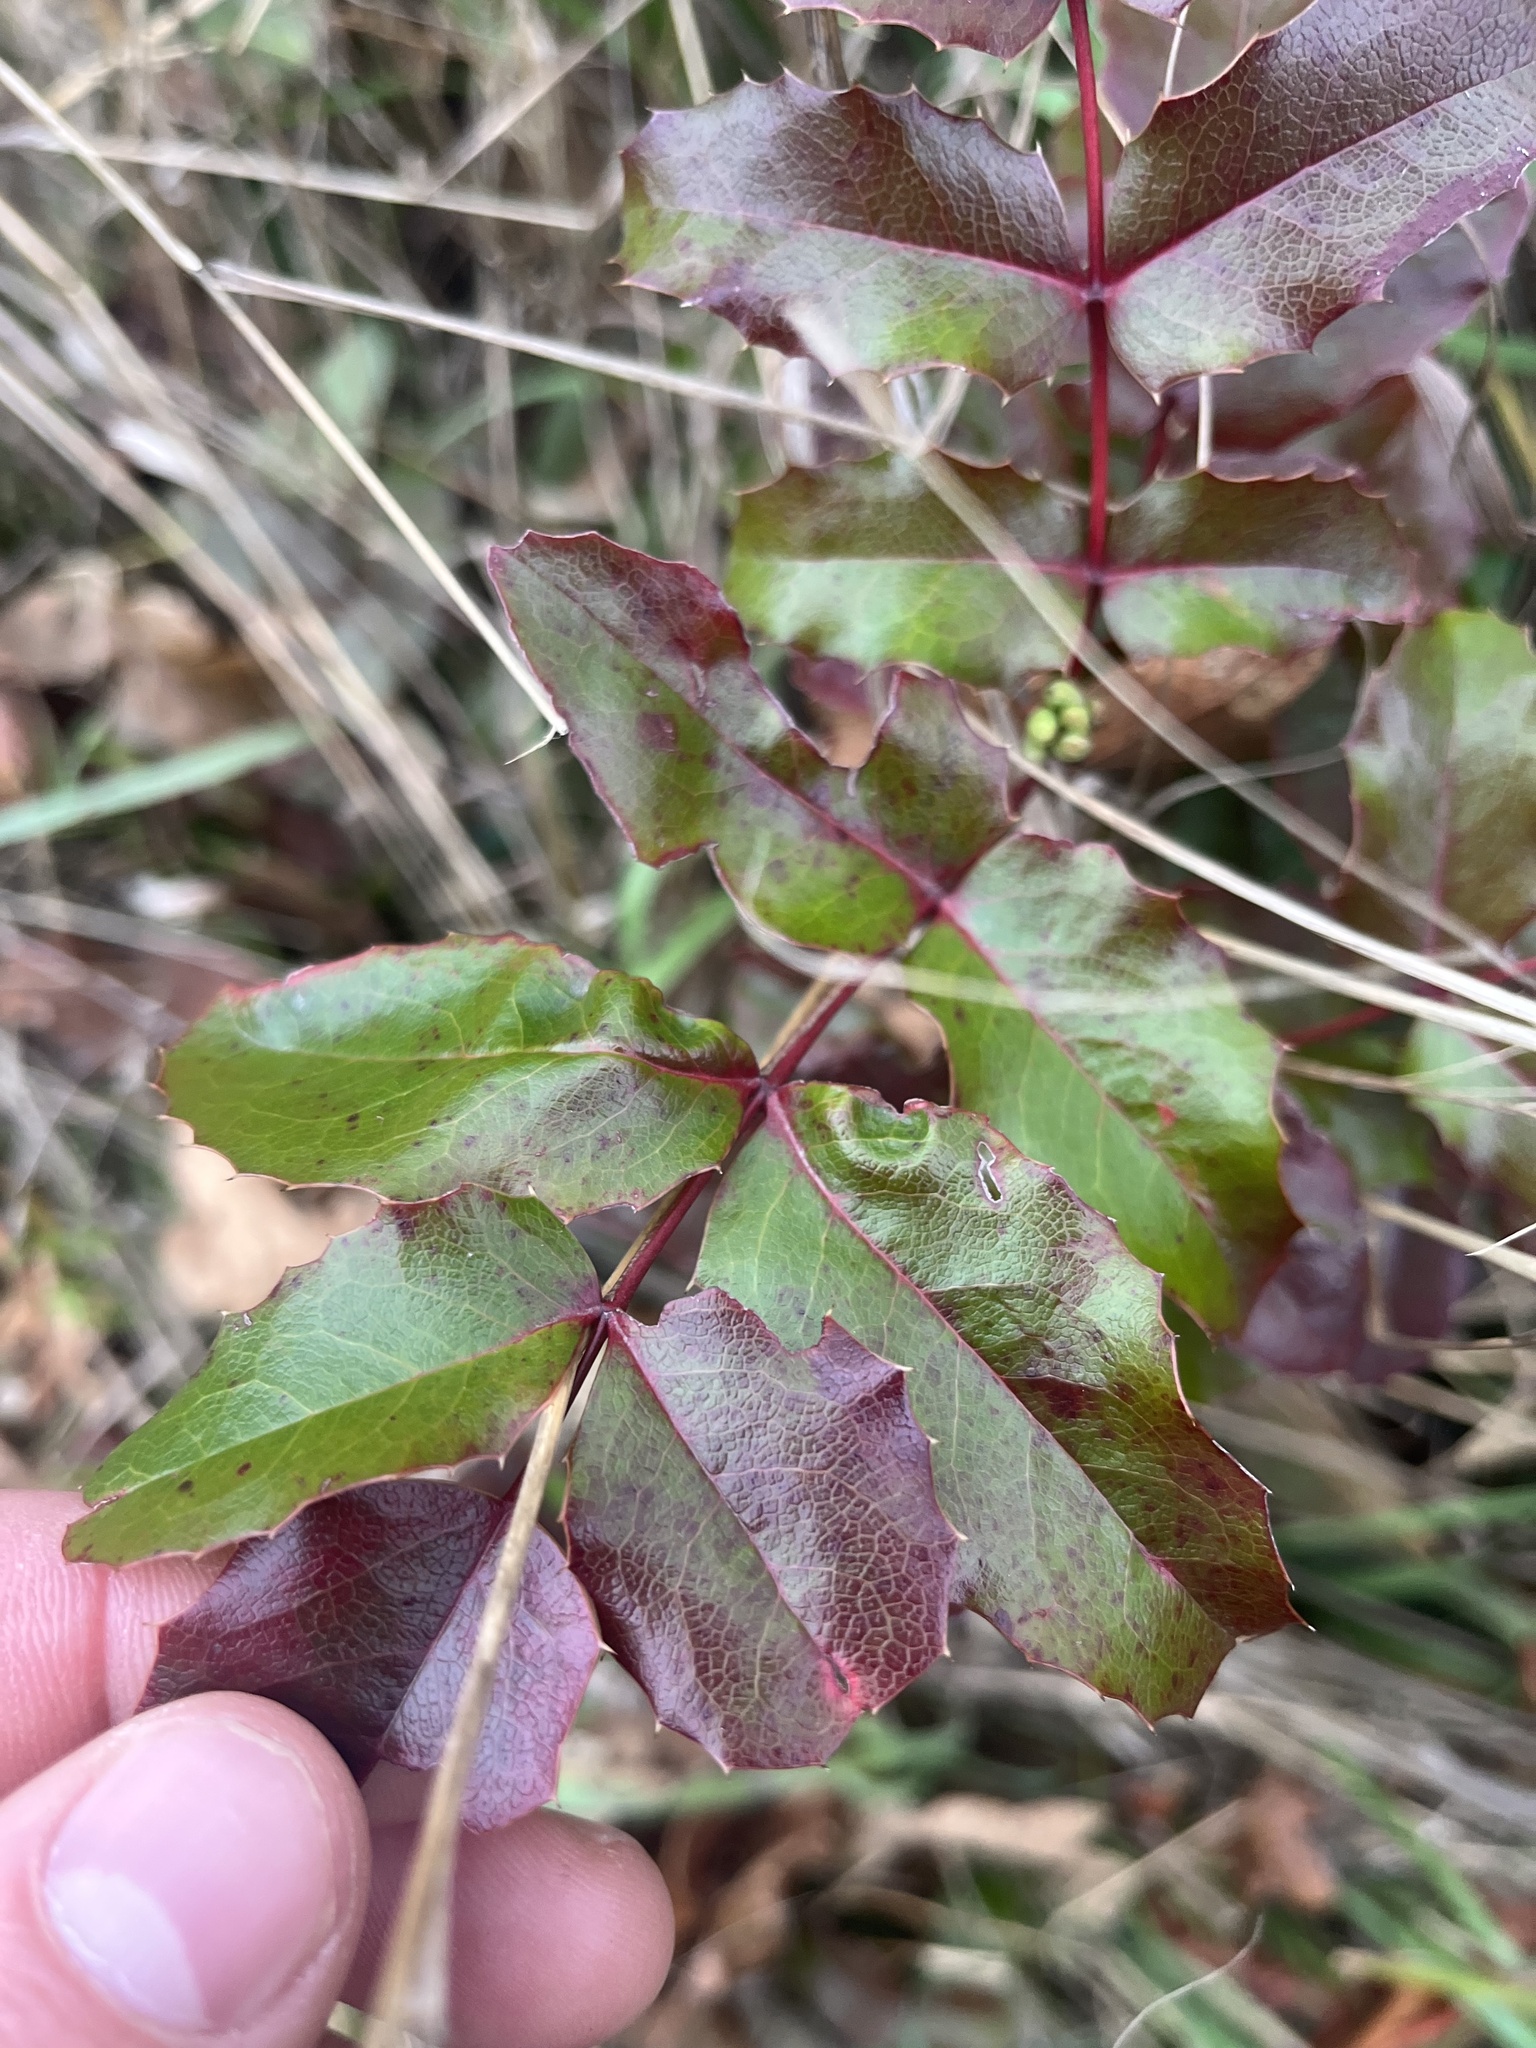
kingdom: Plantae
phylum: Tracheophyta
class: Magnoliopsida
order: Ranunculales
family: Berberidaceae
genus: Mahonia
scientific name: Mahonia aquifolium
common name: Oregon-grape
